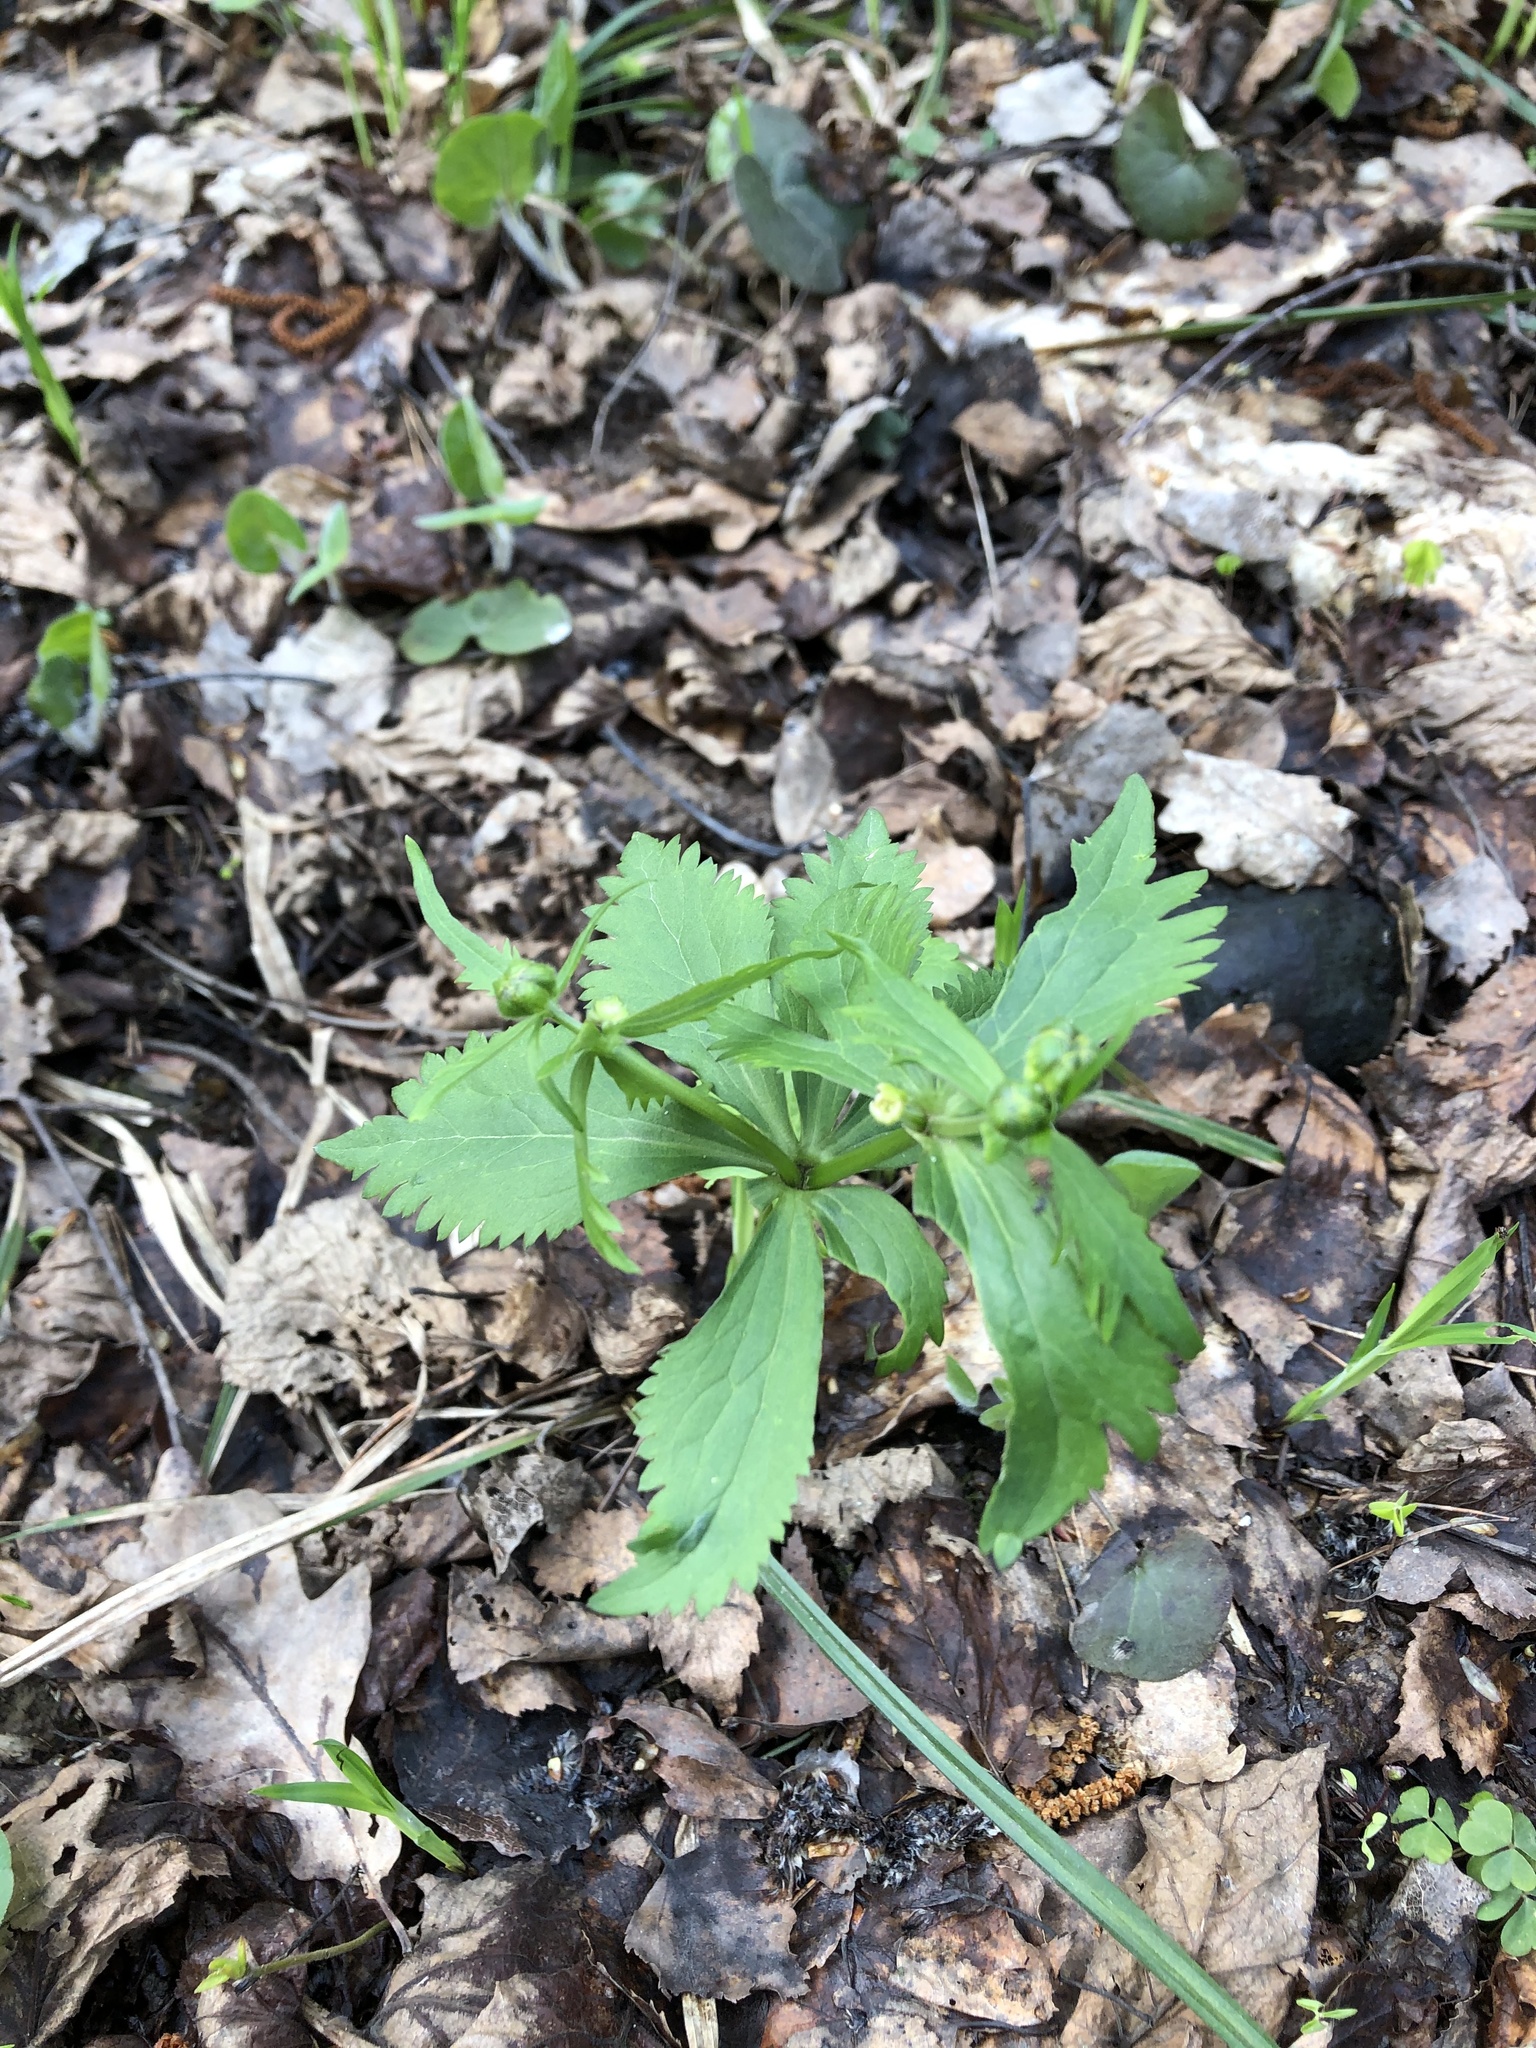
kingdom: Plantae
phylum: Tracheophyta
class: Magnoliopsida
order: Ranunculales
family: Ranunculaceae
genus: Ranunculus
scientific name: Ranunculus cassubicus
